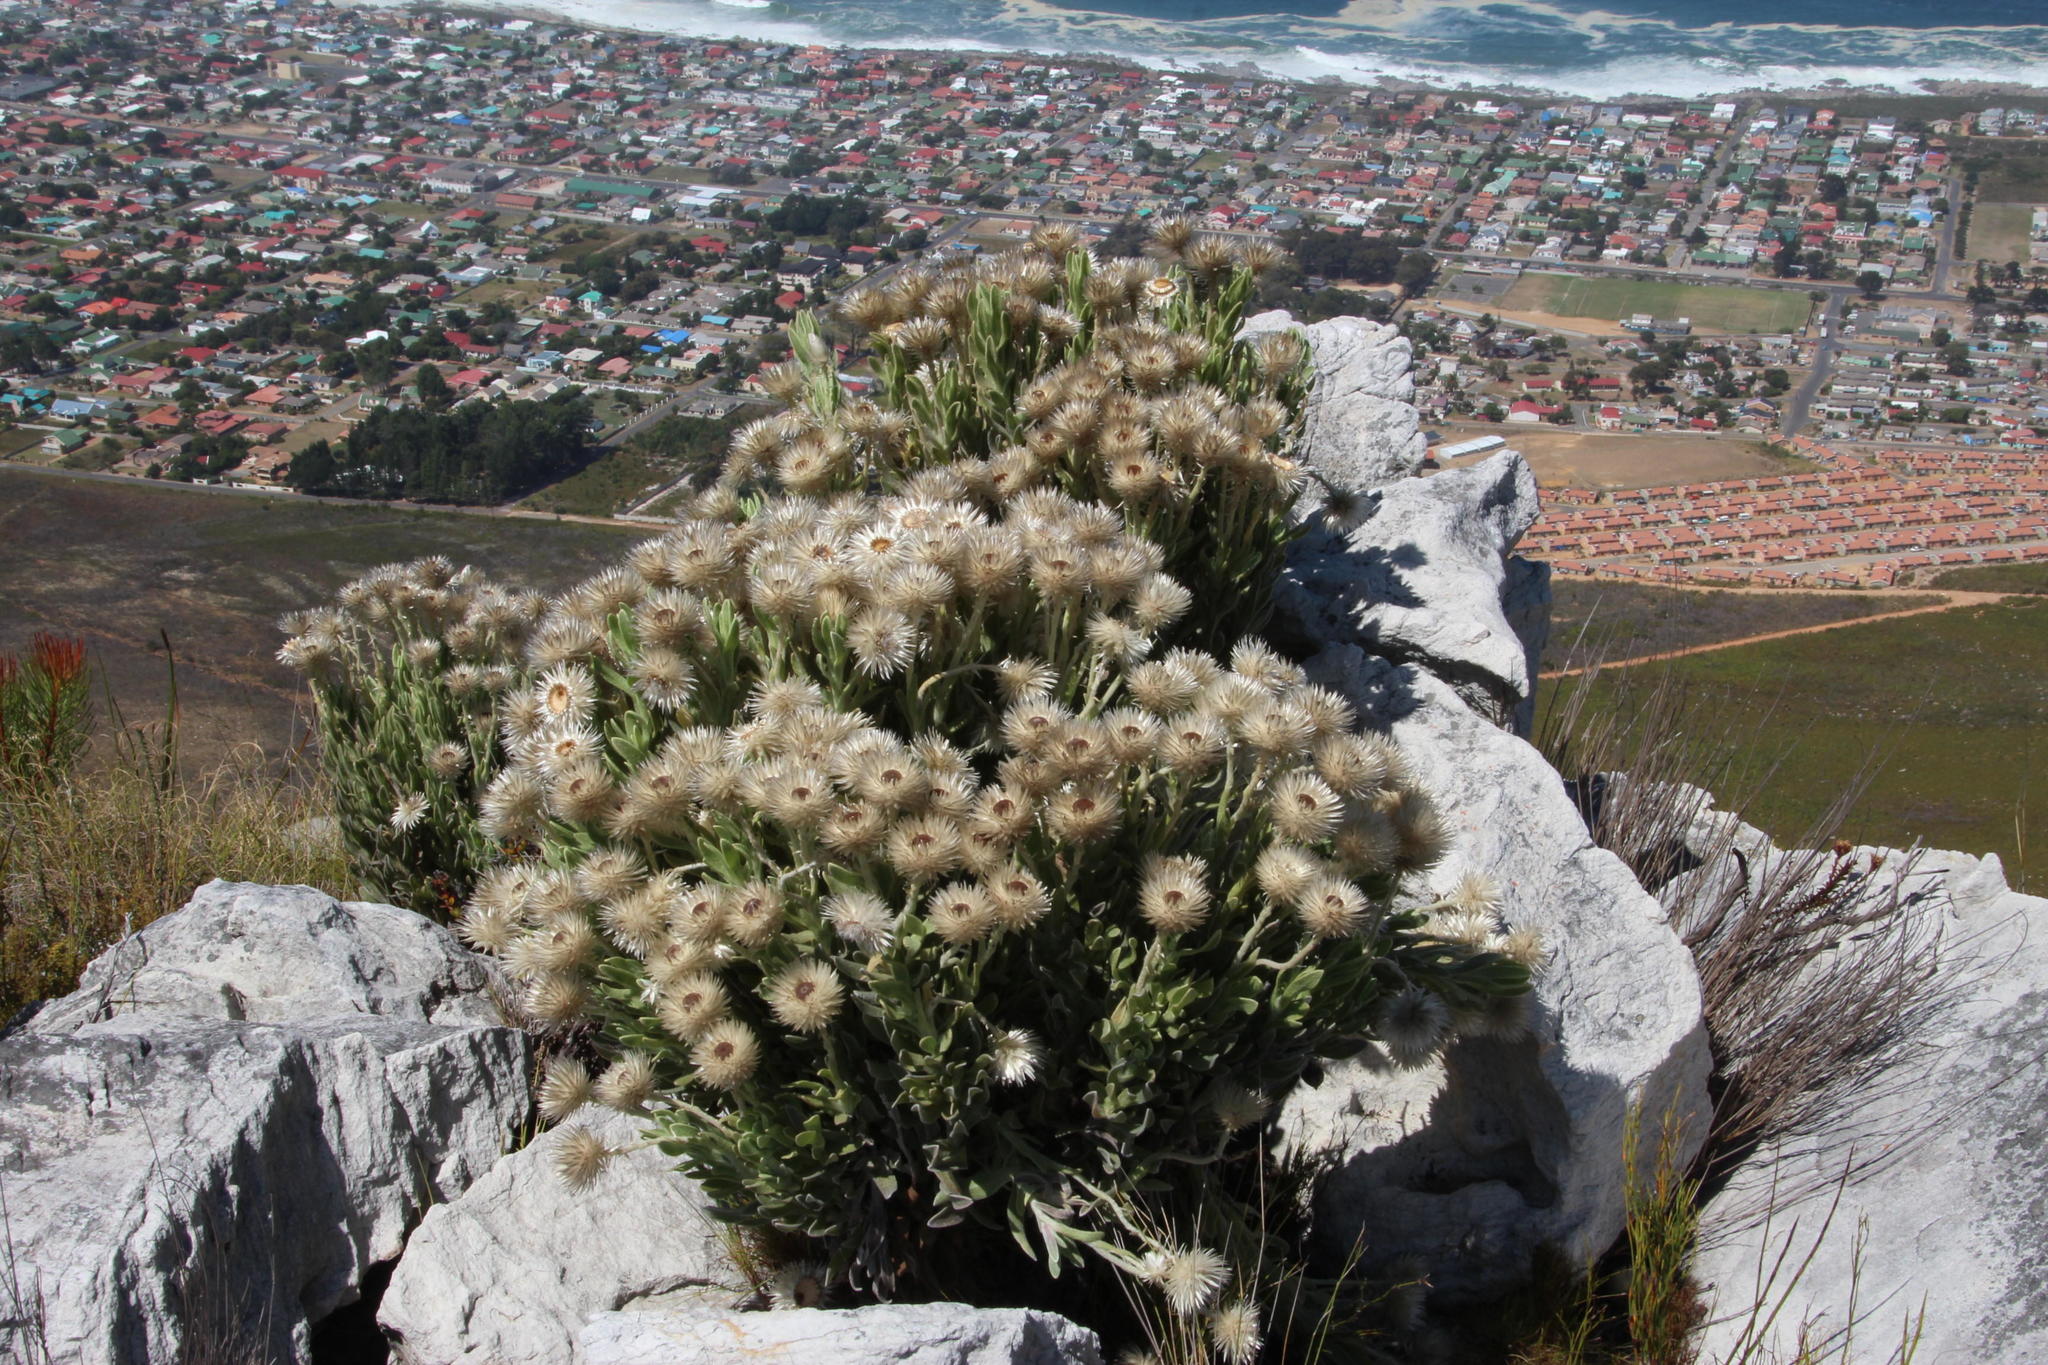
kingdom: Plantae
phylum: Tracheophyta
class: Magnoliopsida
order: Asterales
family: Asteraceae
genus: Syncarpha
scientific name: Syncarpha vestita
